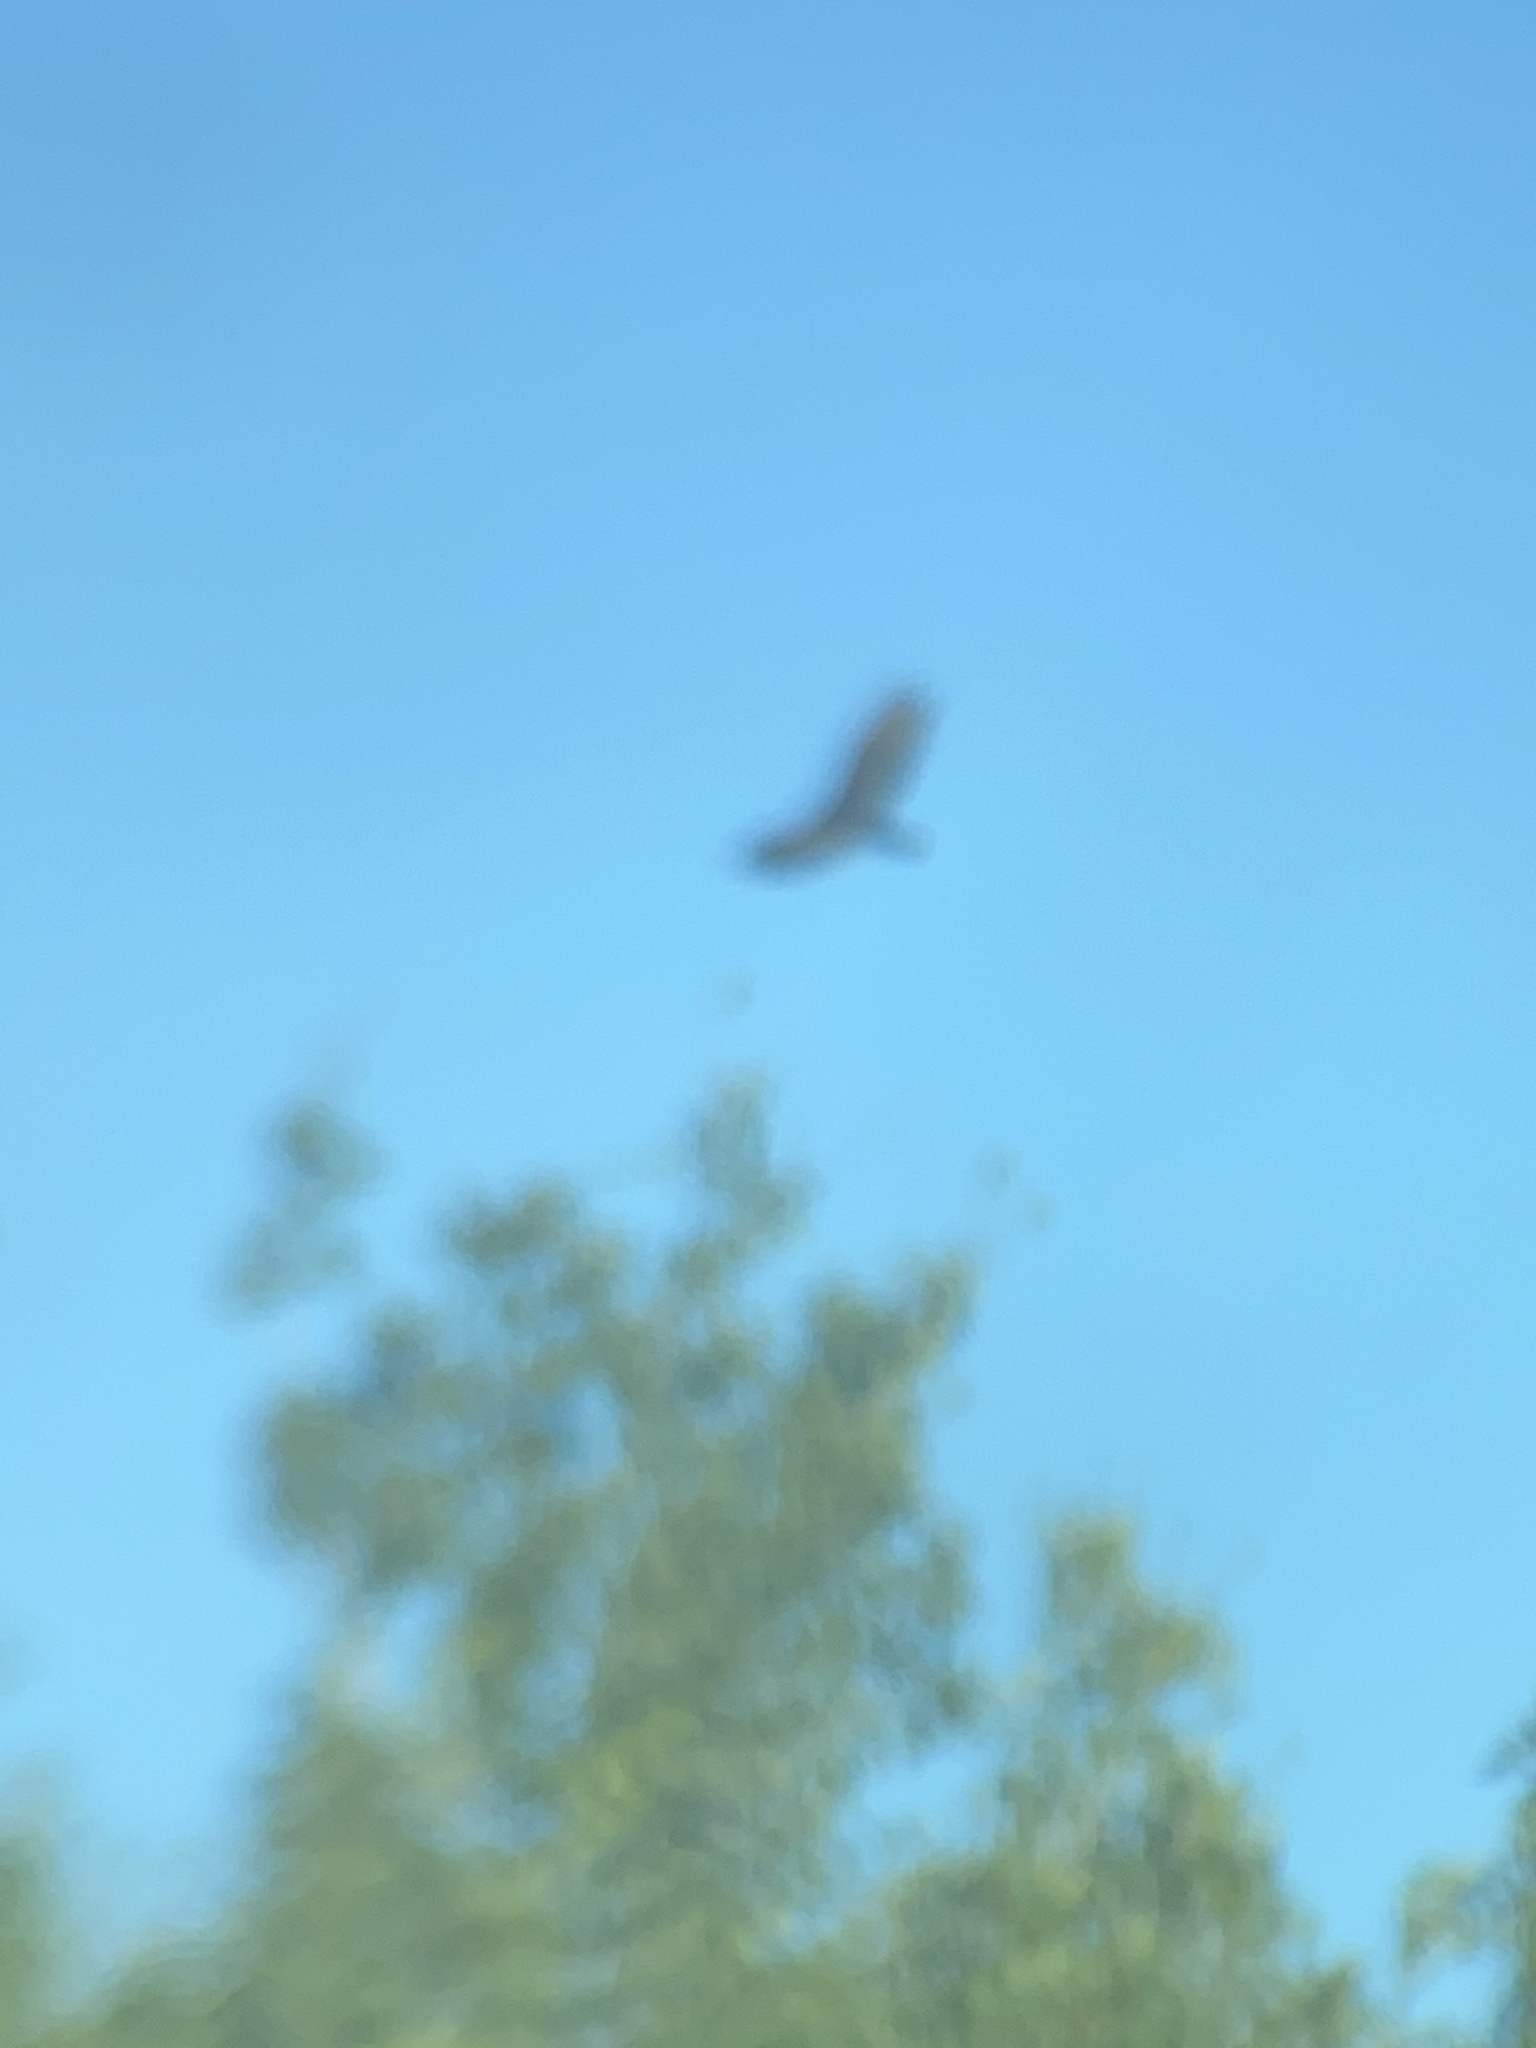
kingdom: Animalia
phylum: Chordata
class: Aves
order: Accipitriformes
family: Cathartidae
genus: Cathartes
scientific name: Cathartes aura
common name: Turkey vulture
